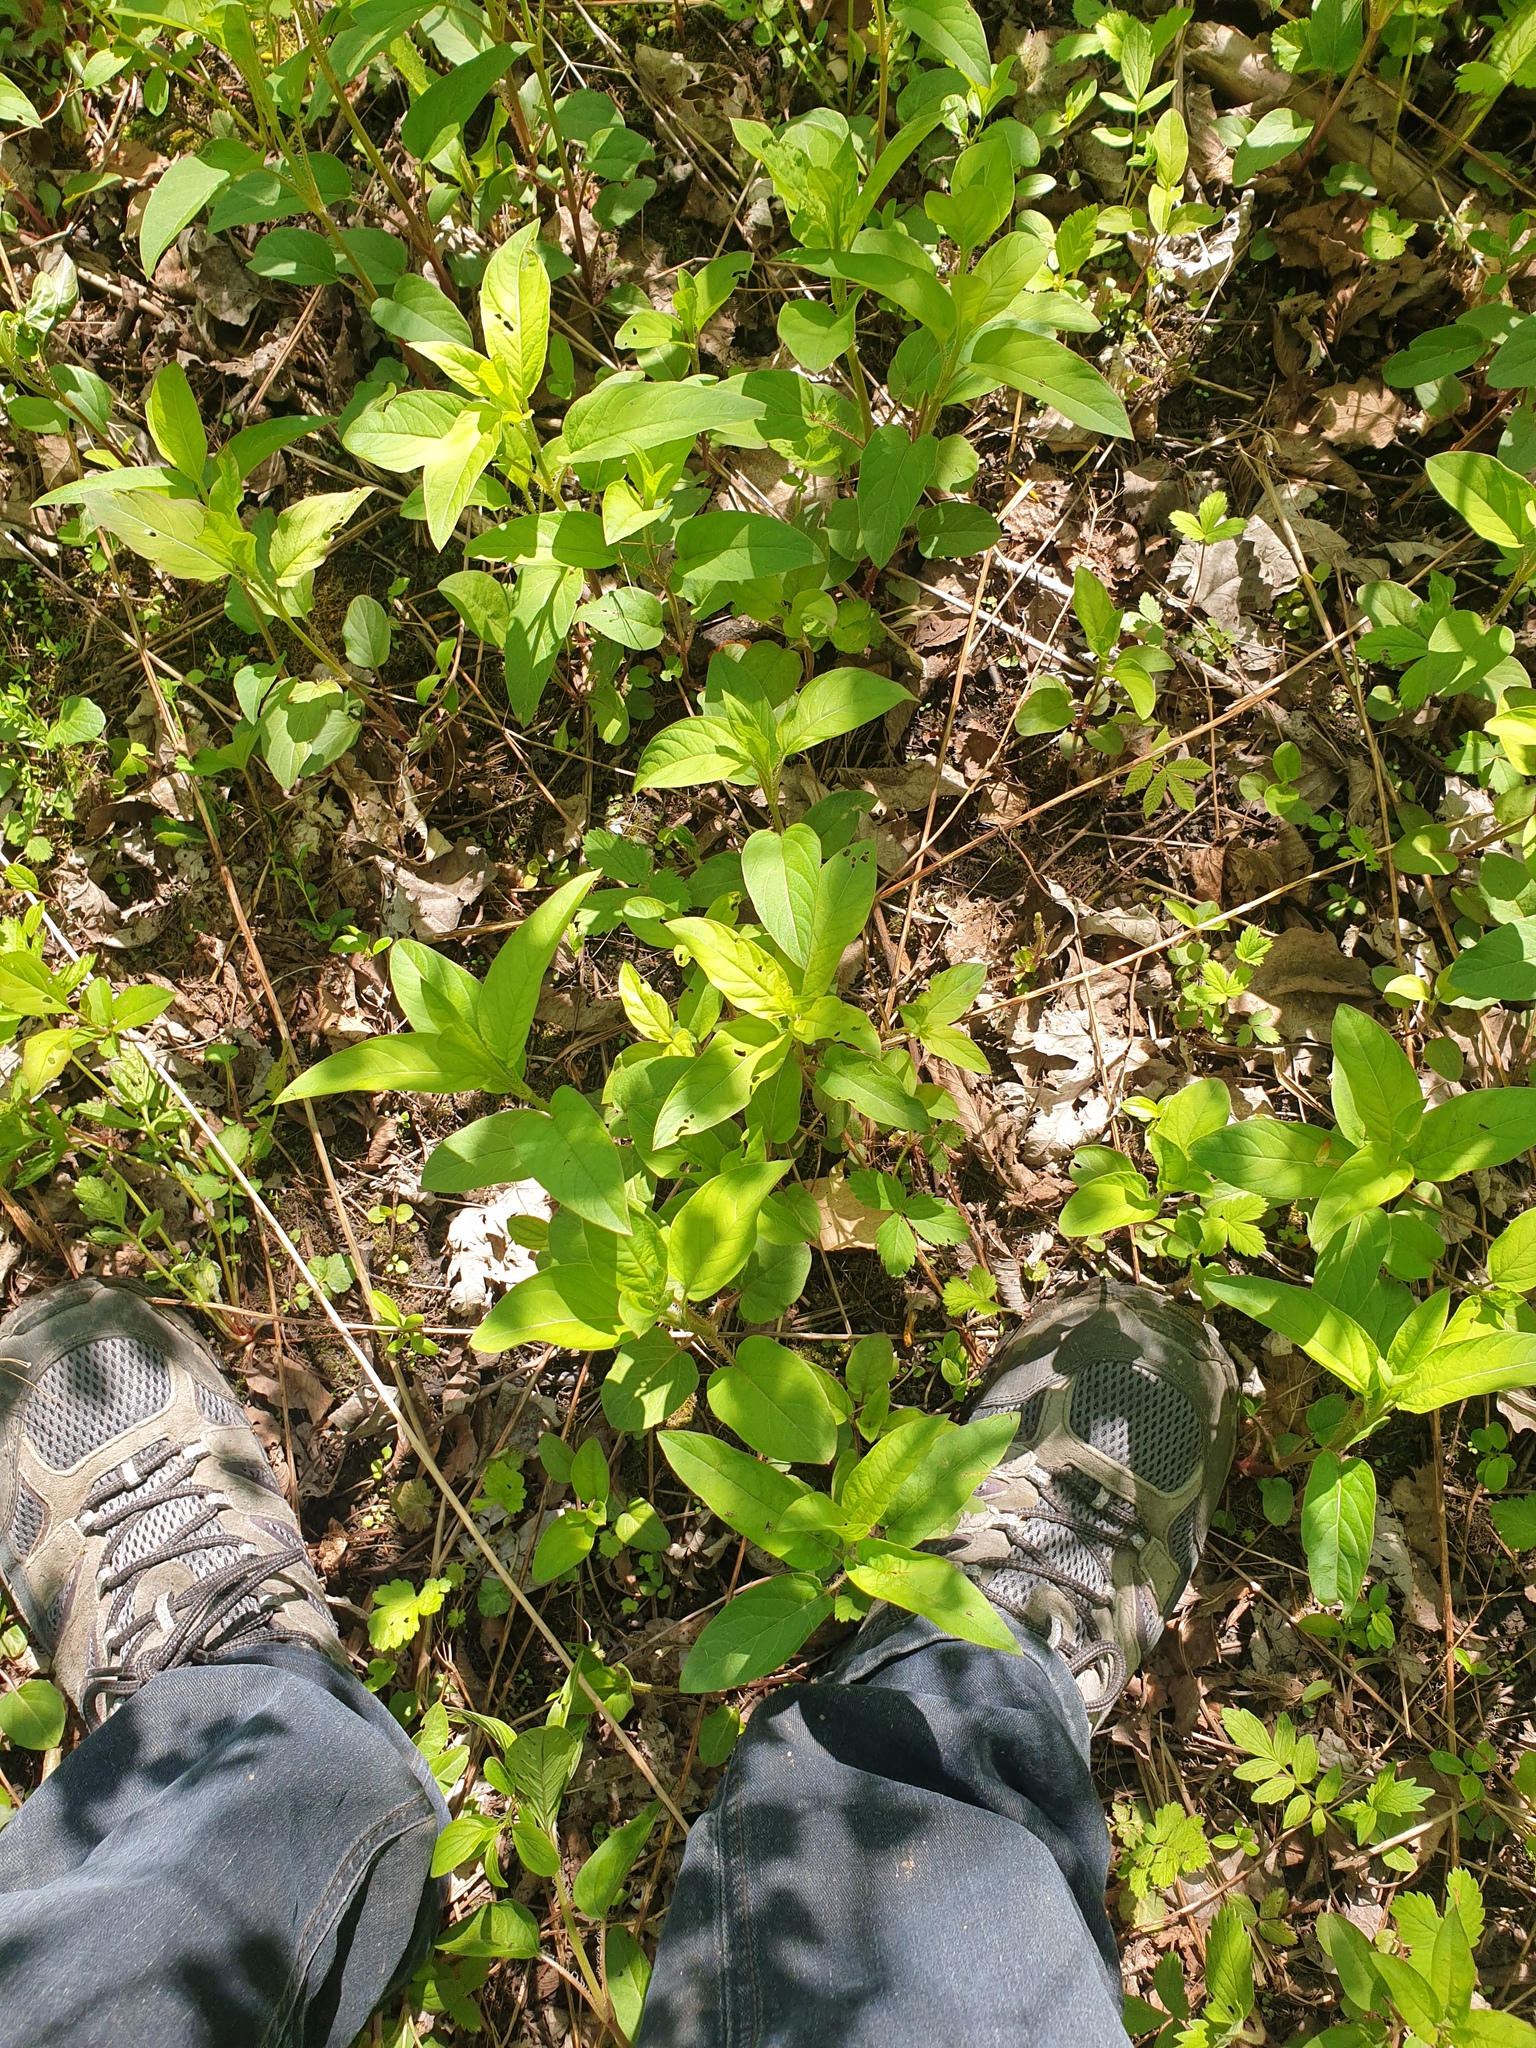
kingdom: Plantae
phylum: Tracheophyta
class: Magnoliopsida
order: Ericales
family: Primulaceae
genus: Lysimachia
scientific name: Lysimachia ciliata
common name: Fringed loosestrife
